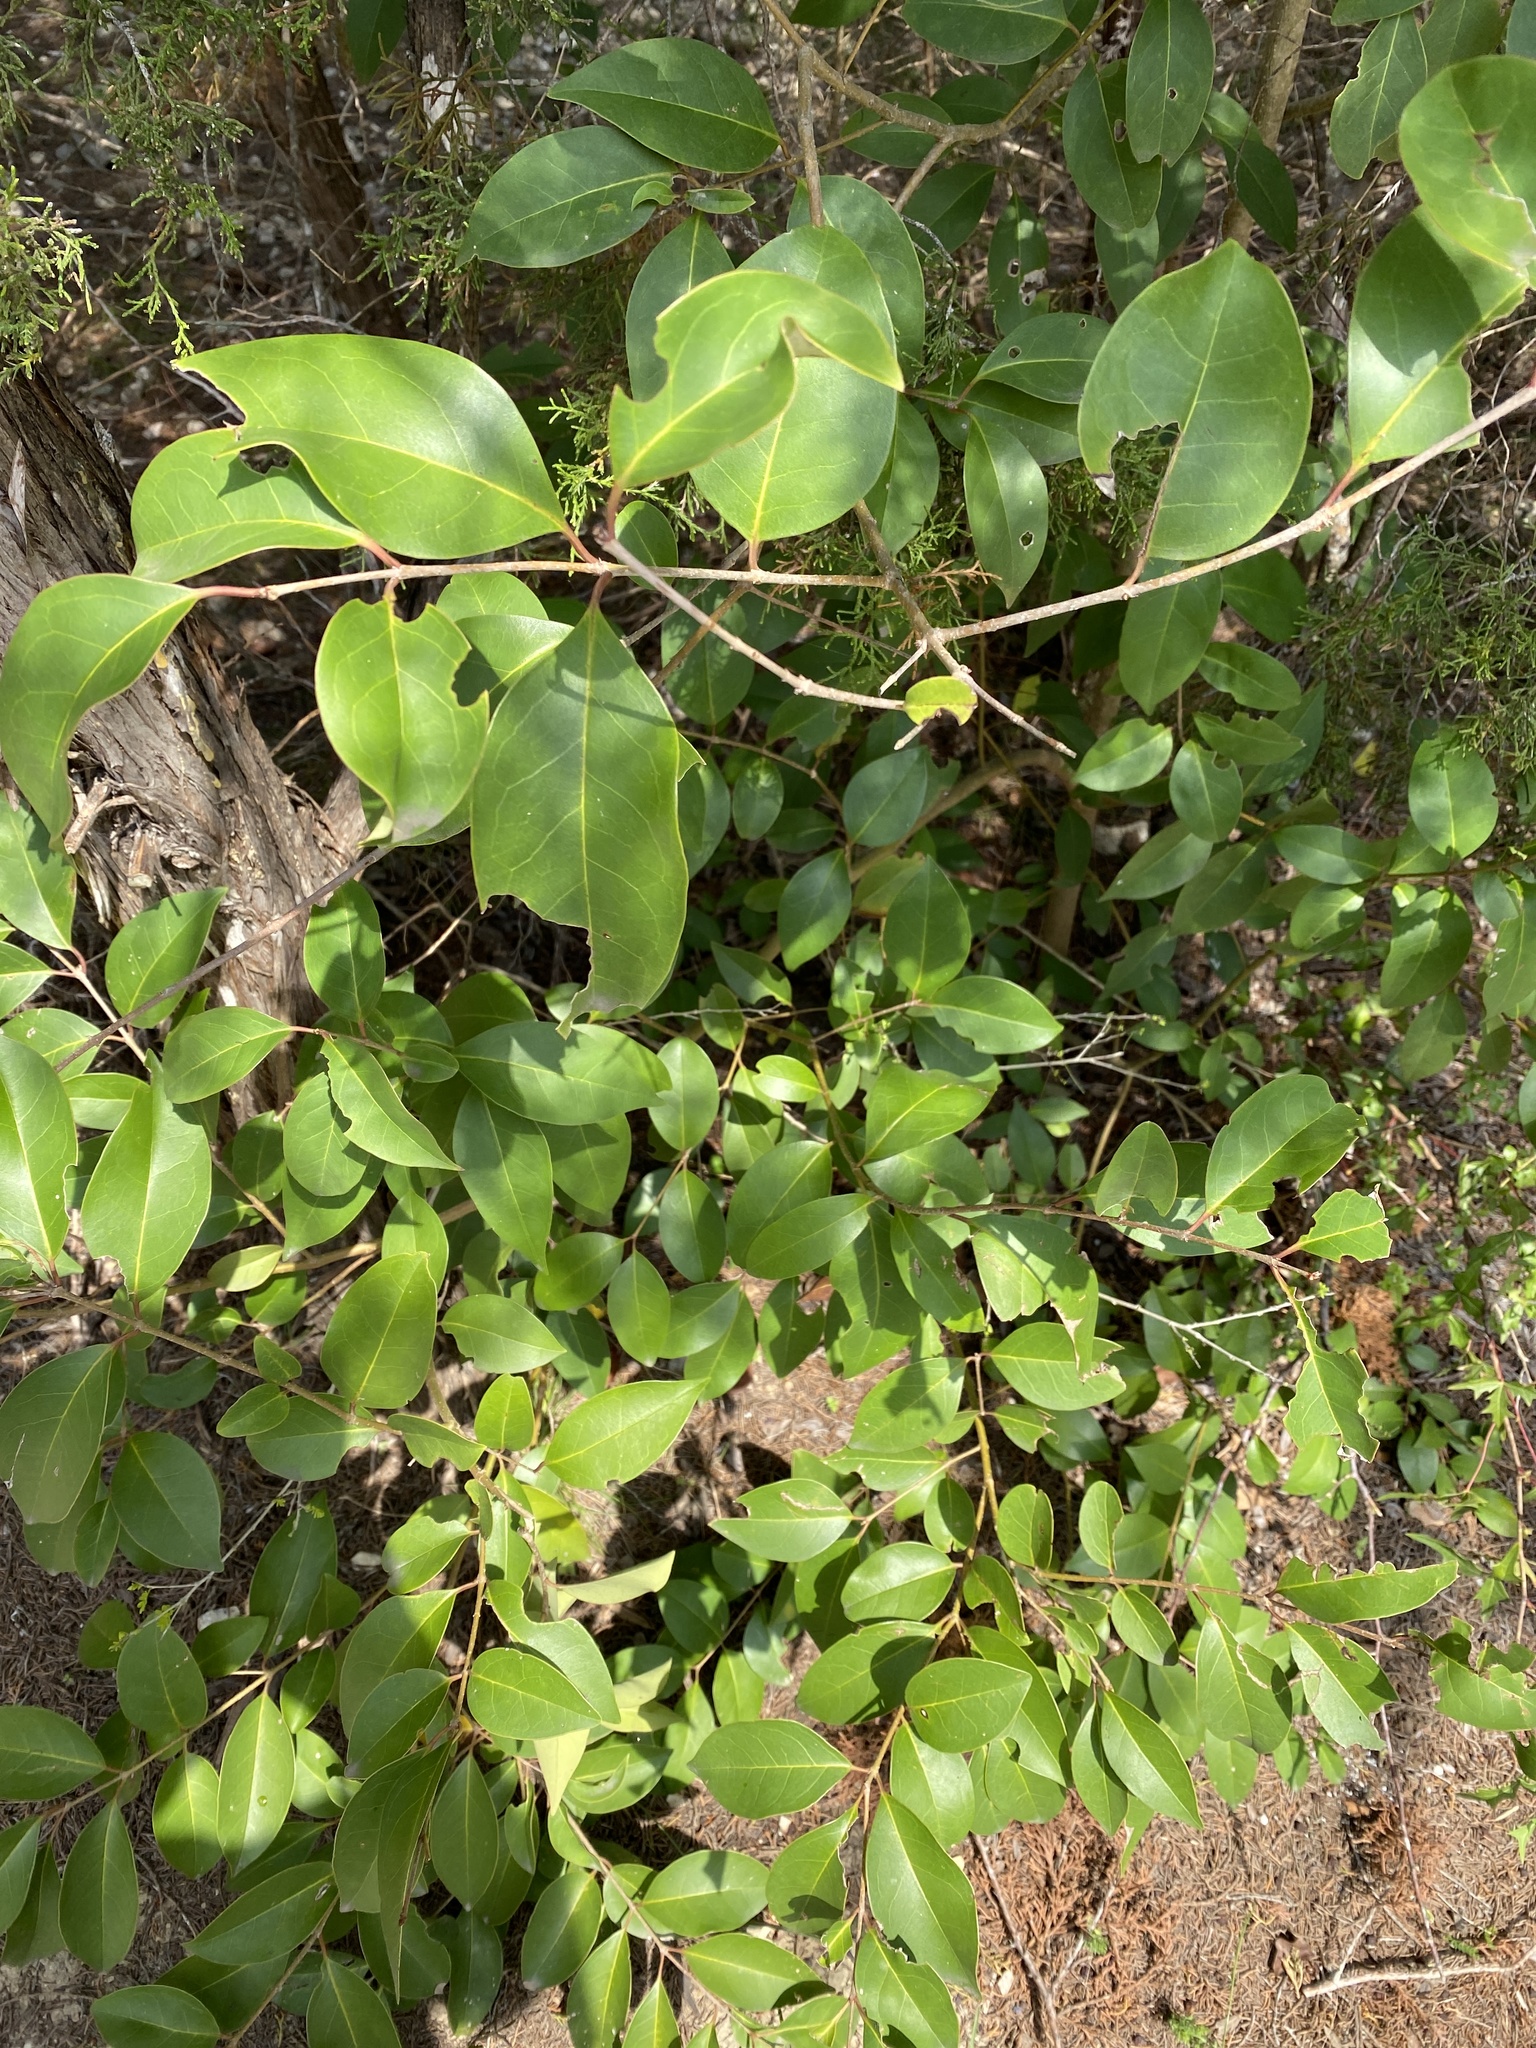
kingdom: Plantae
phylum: Tracheophyta
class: Magnoliopsida
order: Lamiales
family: Oleaceae
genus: Ligustrum
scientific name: Ligustrum lucidum
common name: Glossy privet
